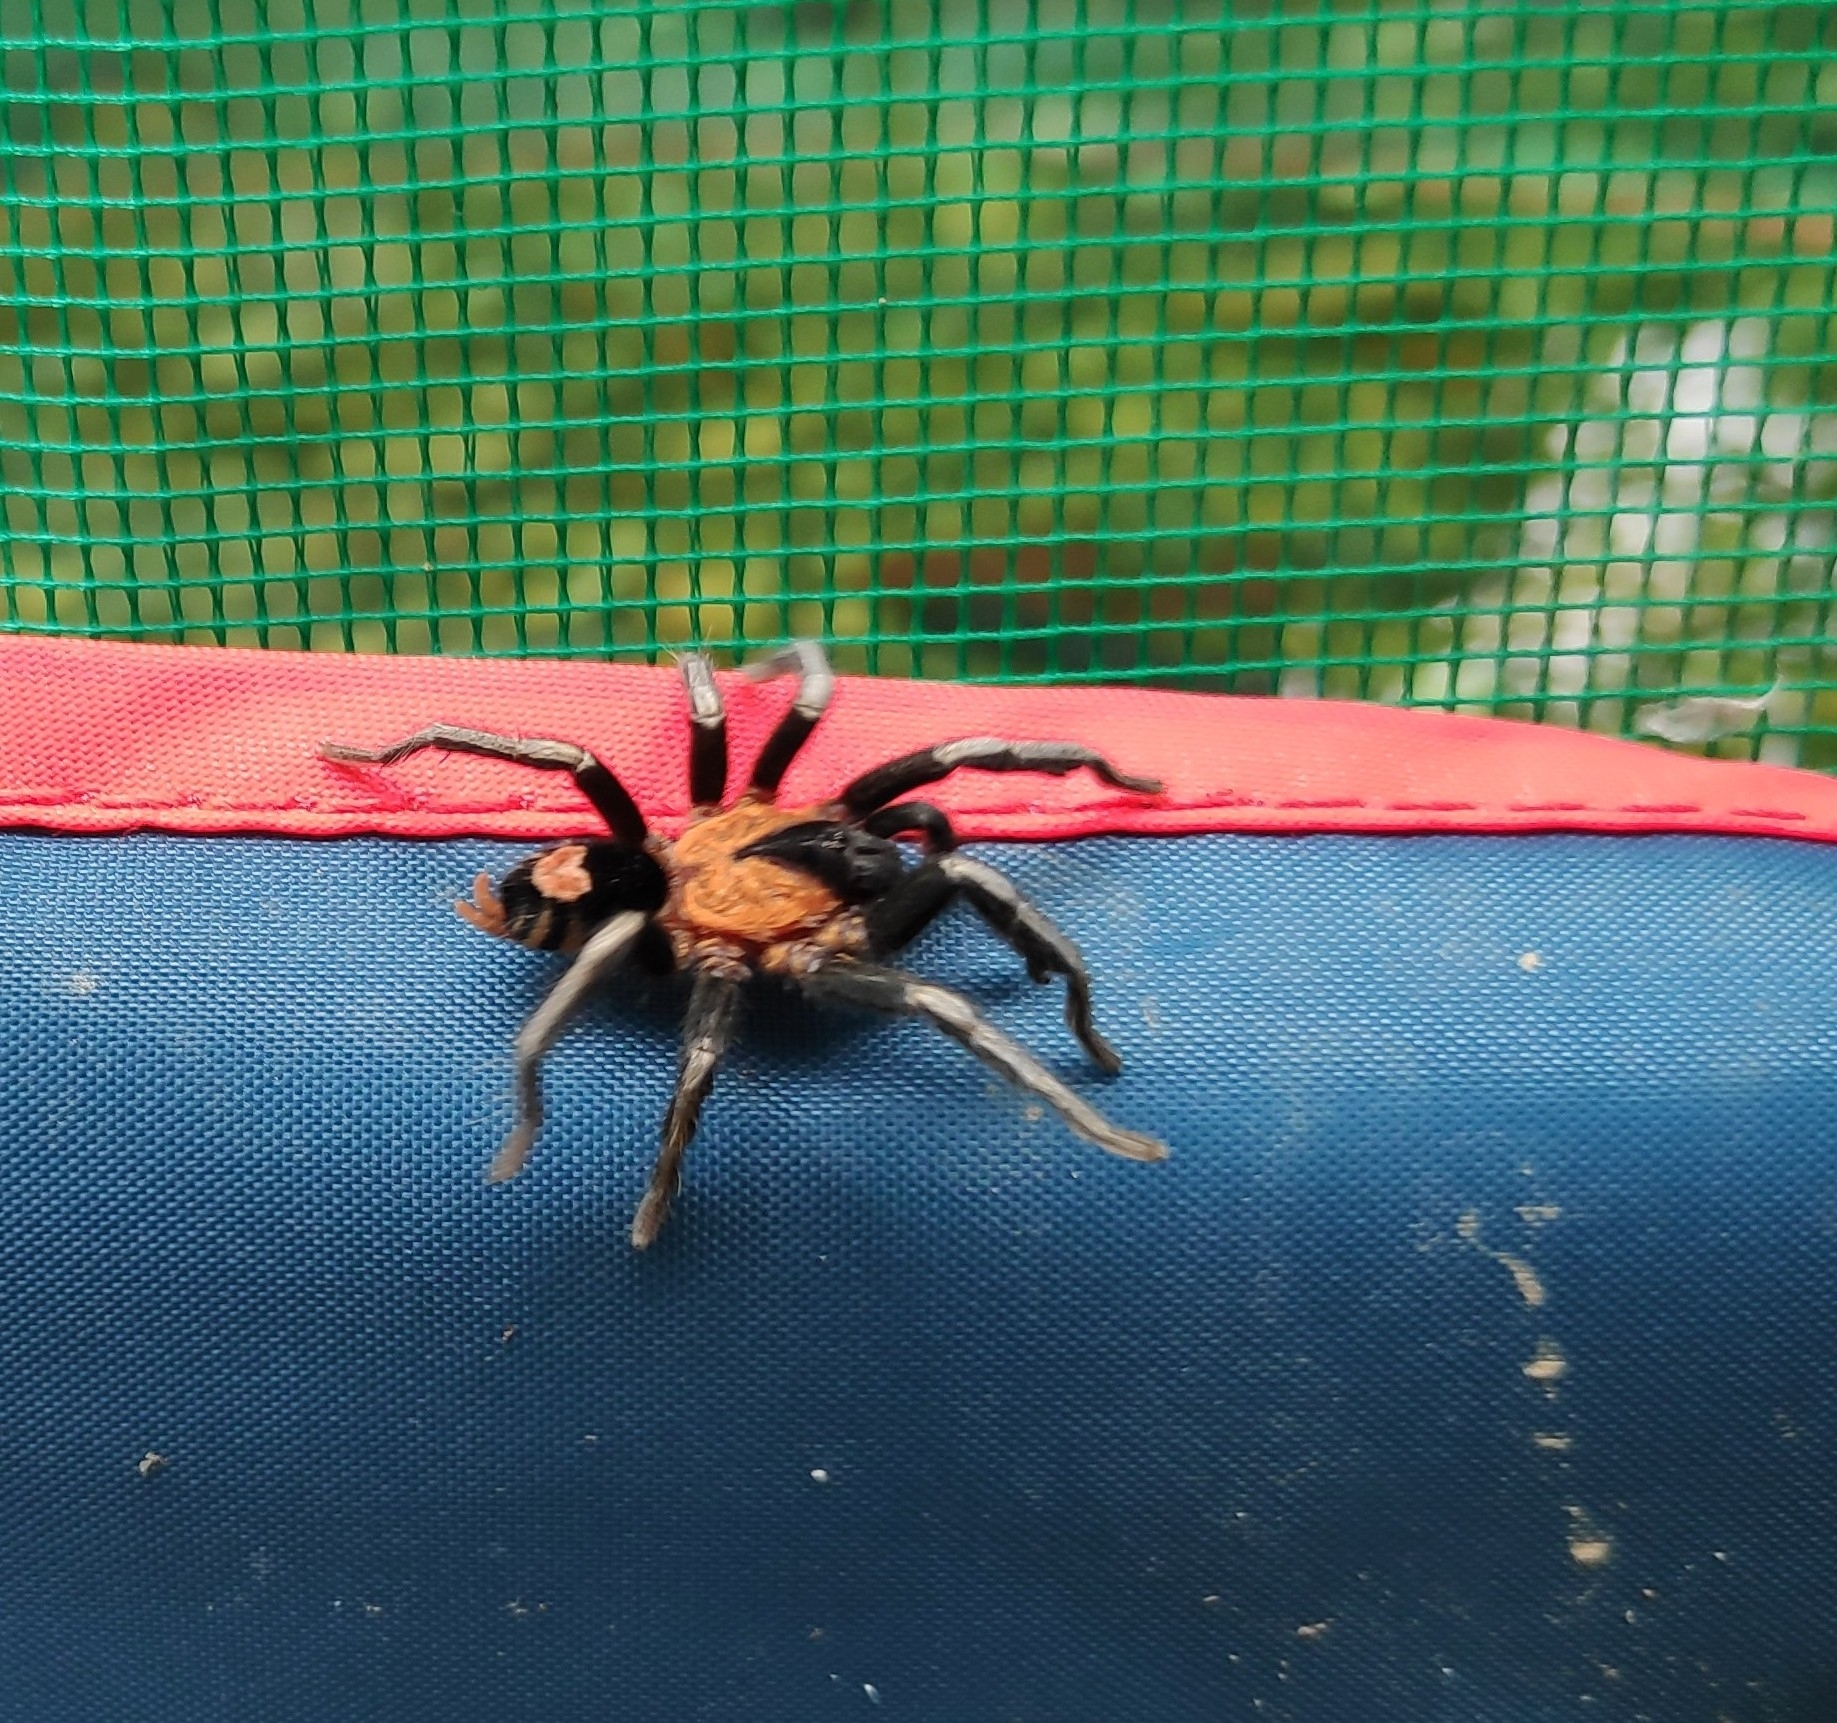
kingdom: Animalia
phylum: Arthropoda
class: Arachnida
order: Araneae
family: Theraphosidae
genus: Cyriocosmus
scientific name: Cyriocosmus elegans
